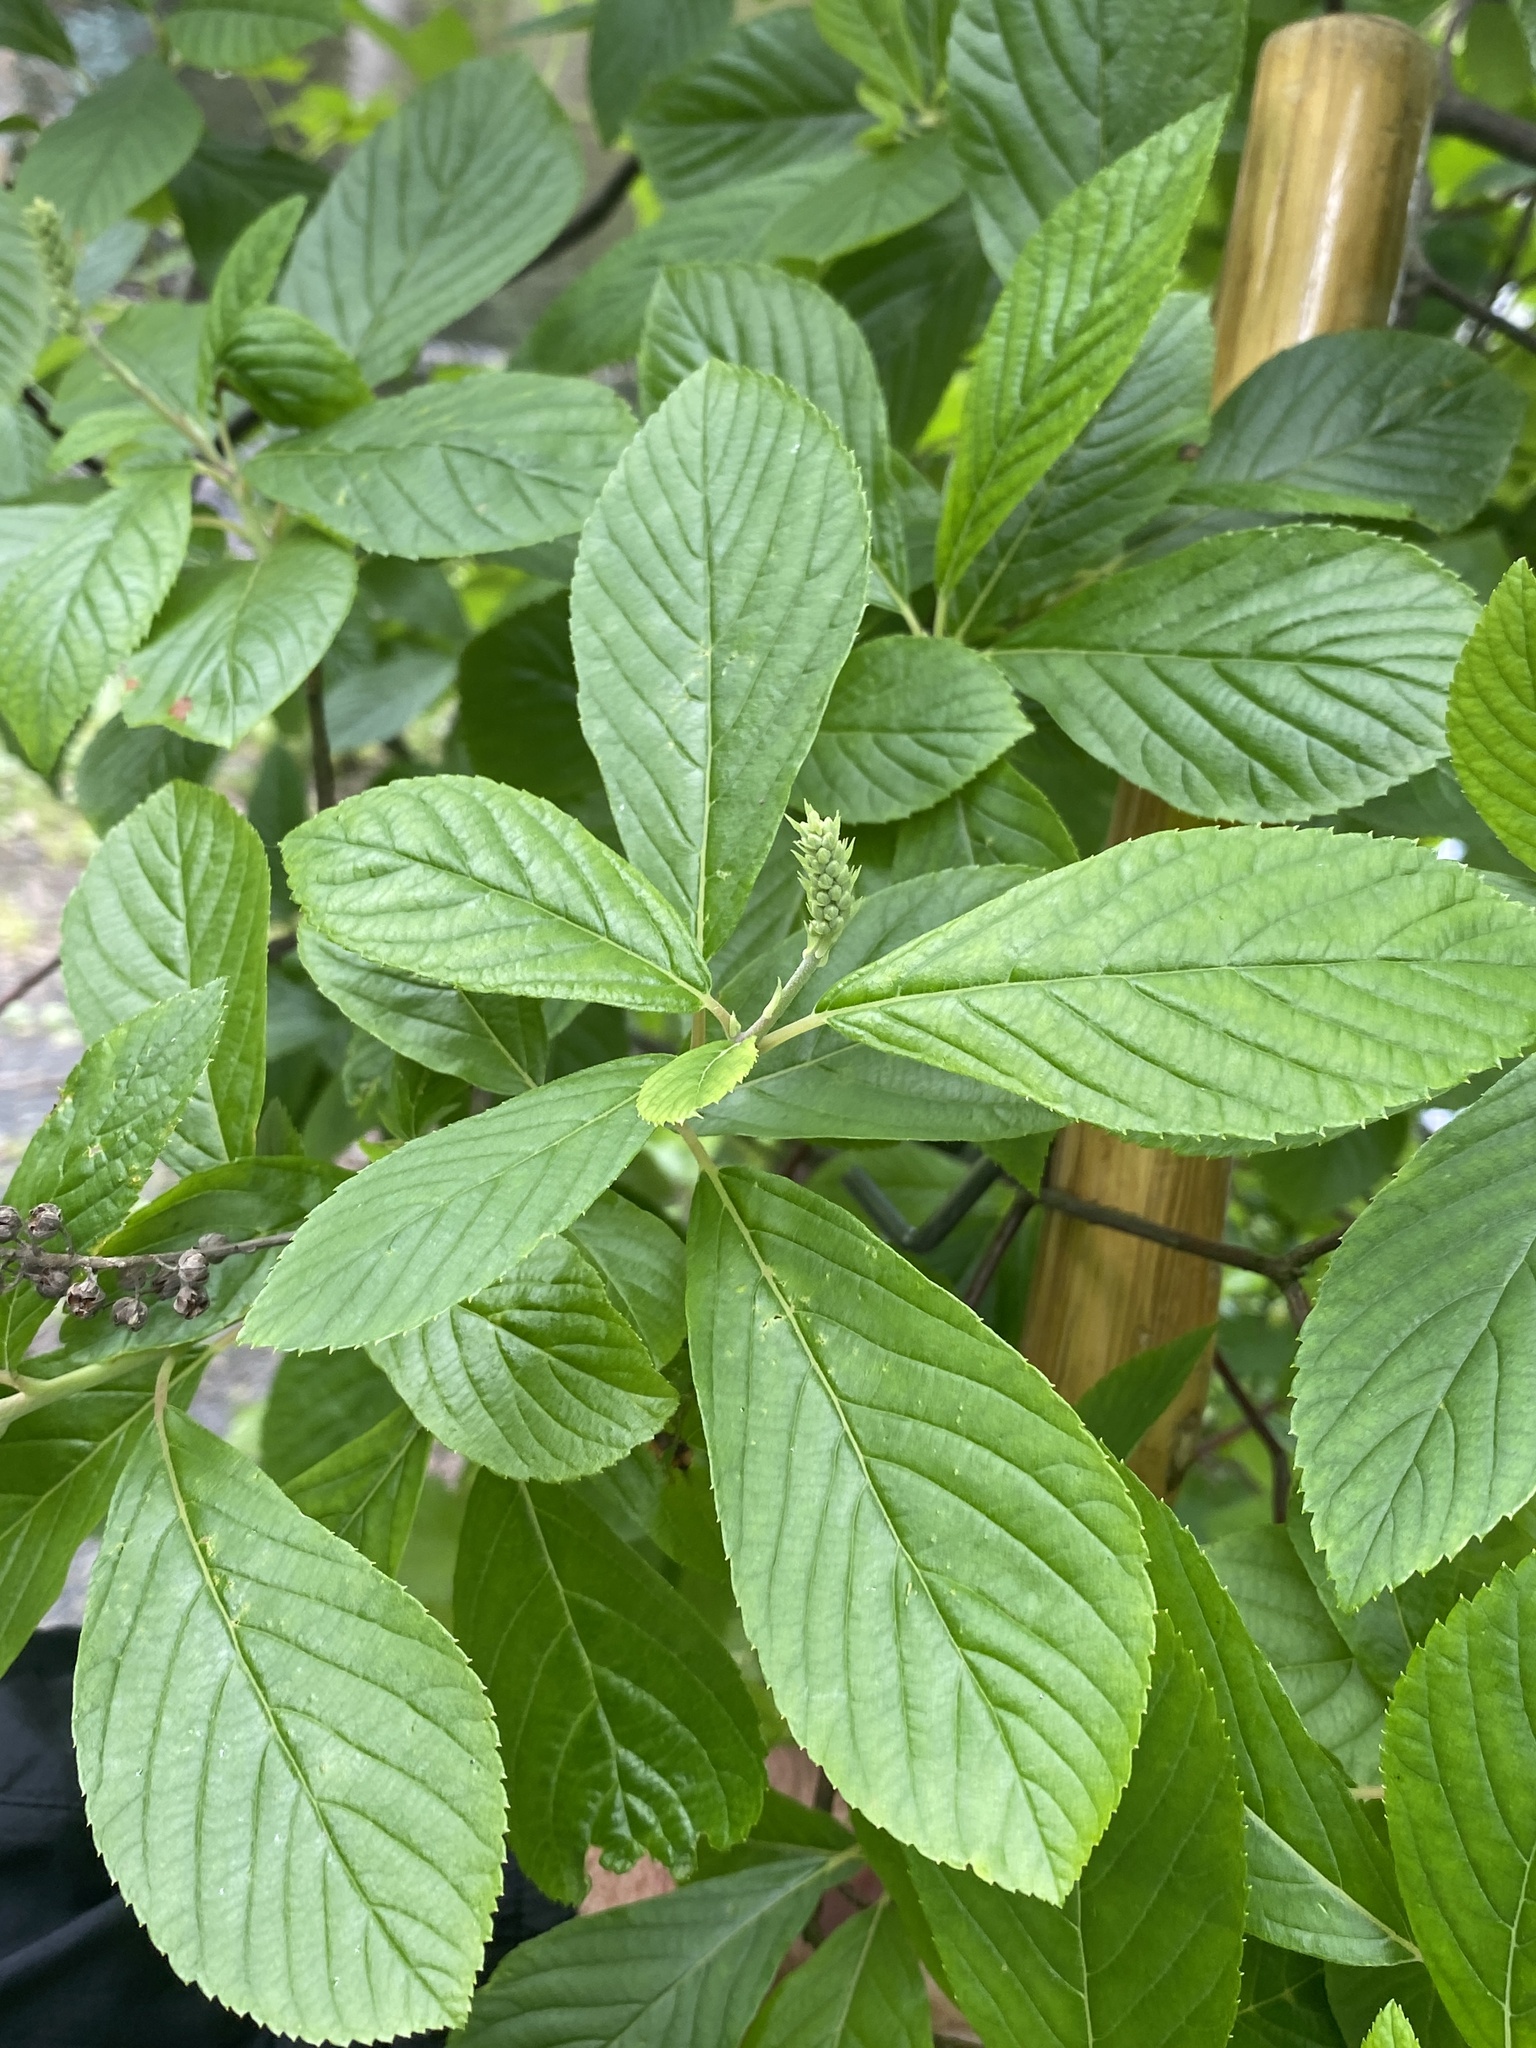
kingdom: Plantae
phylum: Tracheophyta
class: Magnoliopsida
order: Ericales
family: Clethraceae
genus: Clethra
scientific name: Clethra alnifolia
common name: Sweet pepperbush
